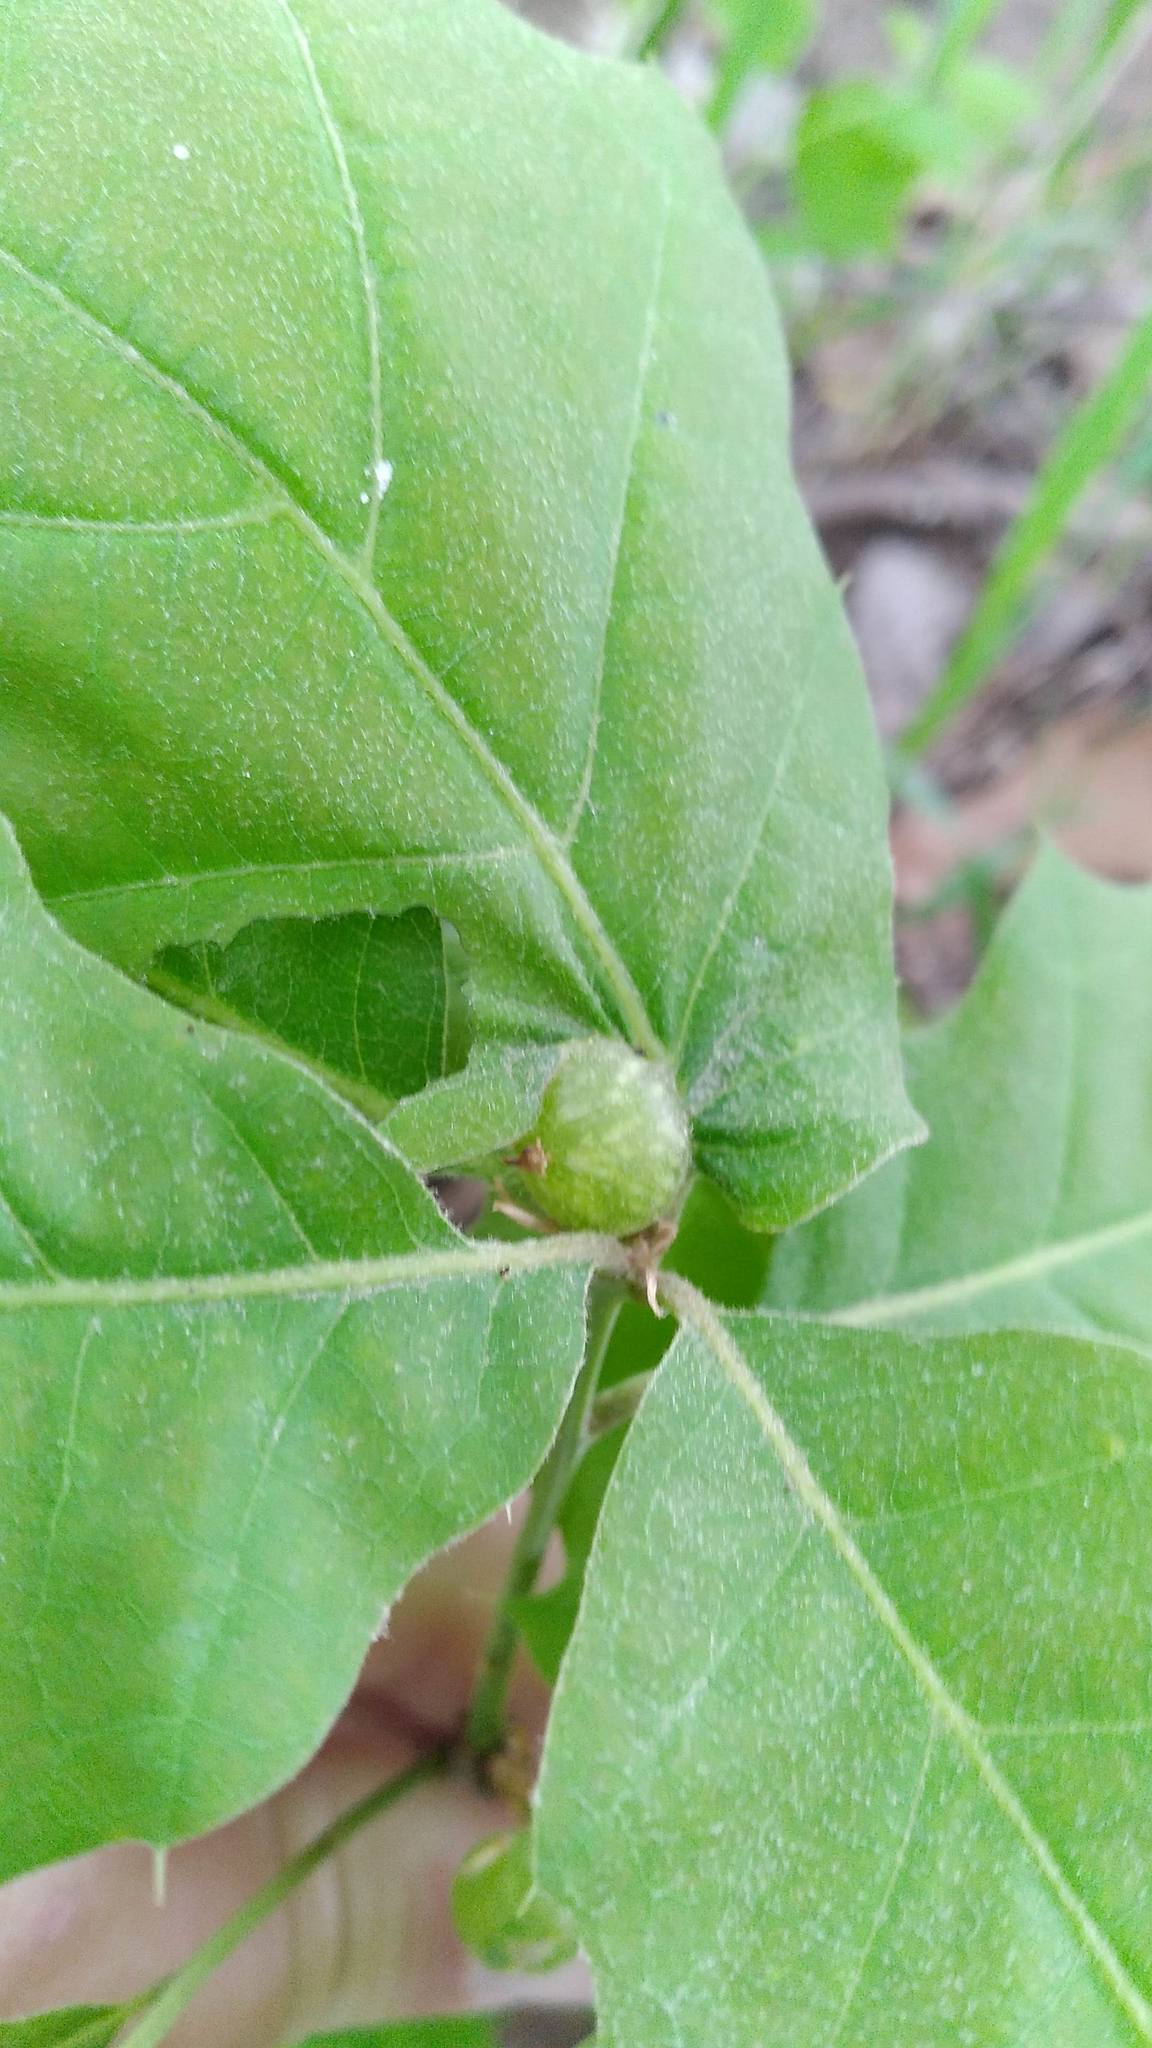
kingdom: Animalia
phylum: Arthropoda
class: Insecta
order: Hymenoptera
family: Cynipidae
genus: Dryocosmus
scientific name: Dryocosmus quercuspalustris
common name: Succulent oak gall wasp
